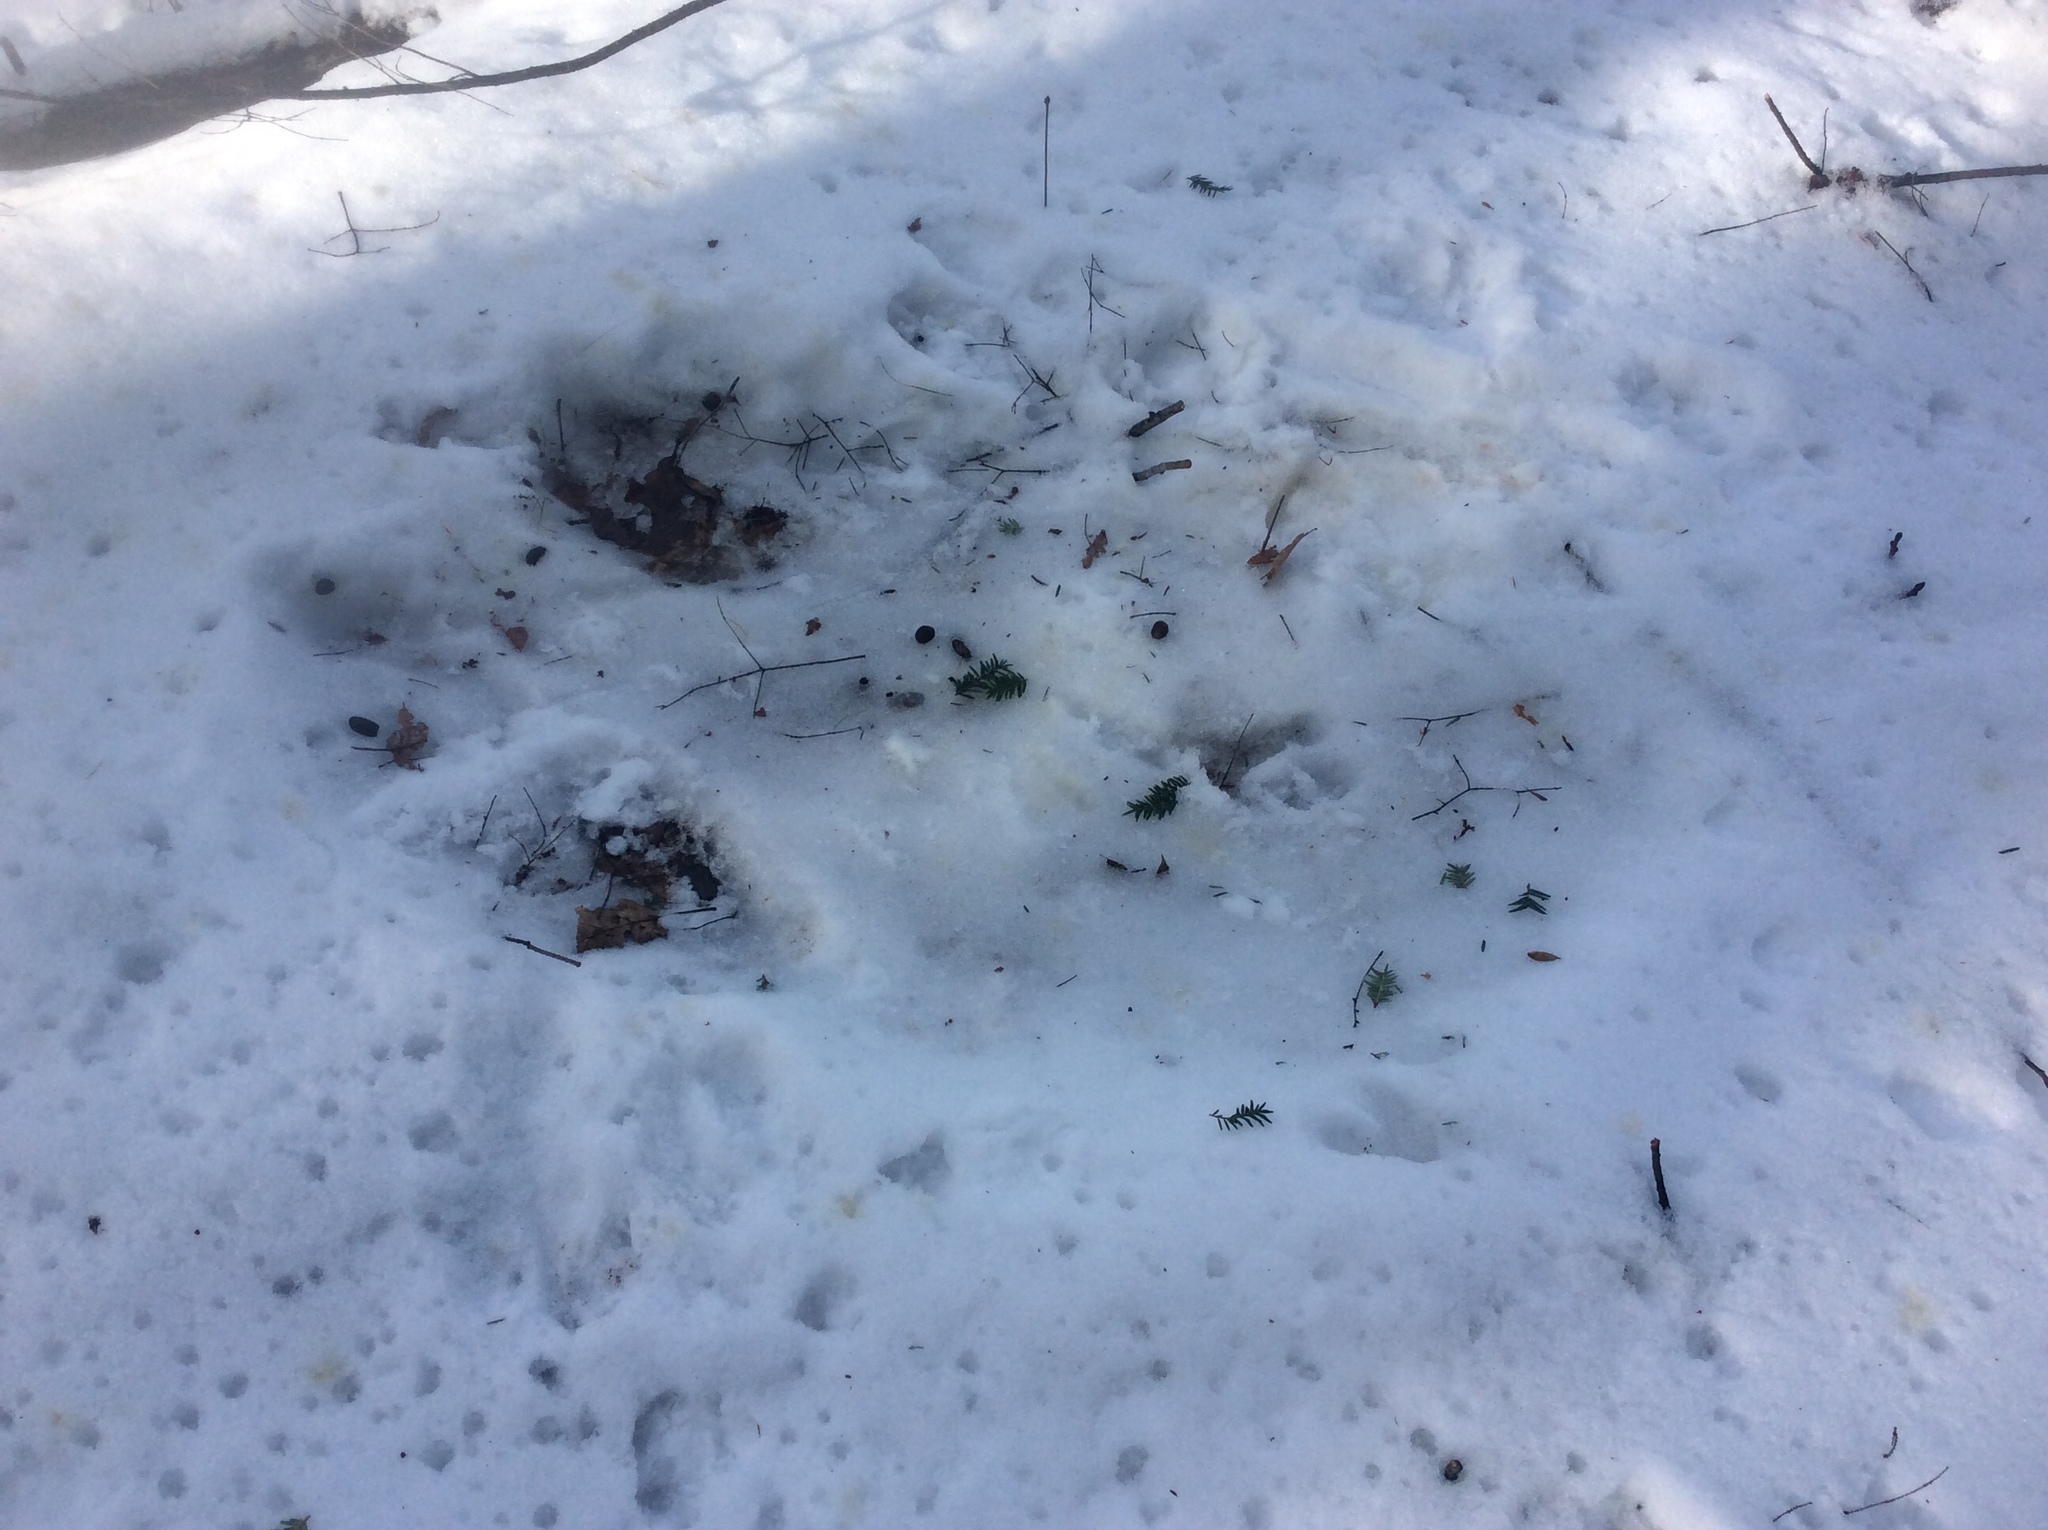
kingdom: Animalia
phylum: Chordata
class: Mammalia
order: Artiodactyla
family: Cervidae
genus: Odocoileus
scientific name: Odocoileus virginianus
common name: White-tailed deer
